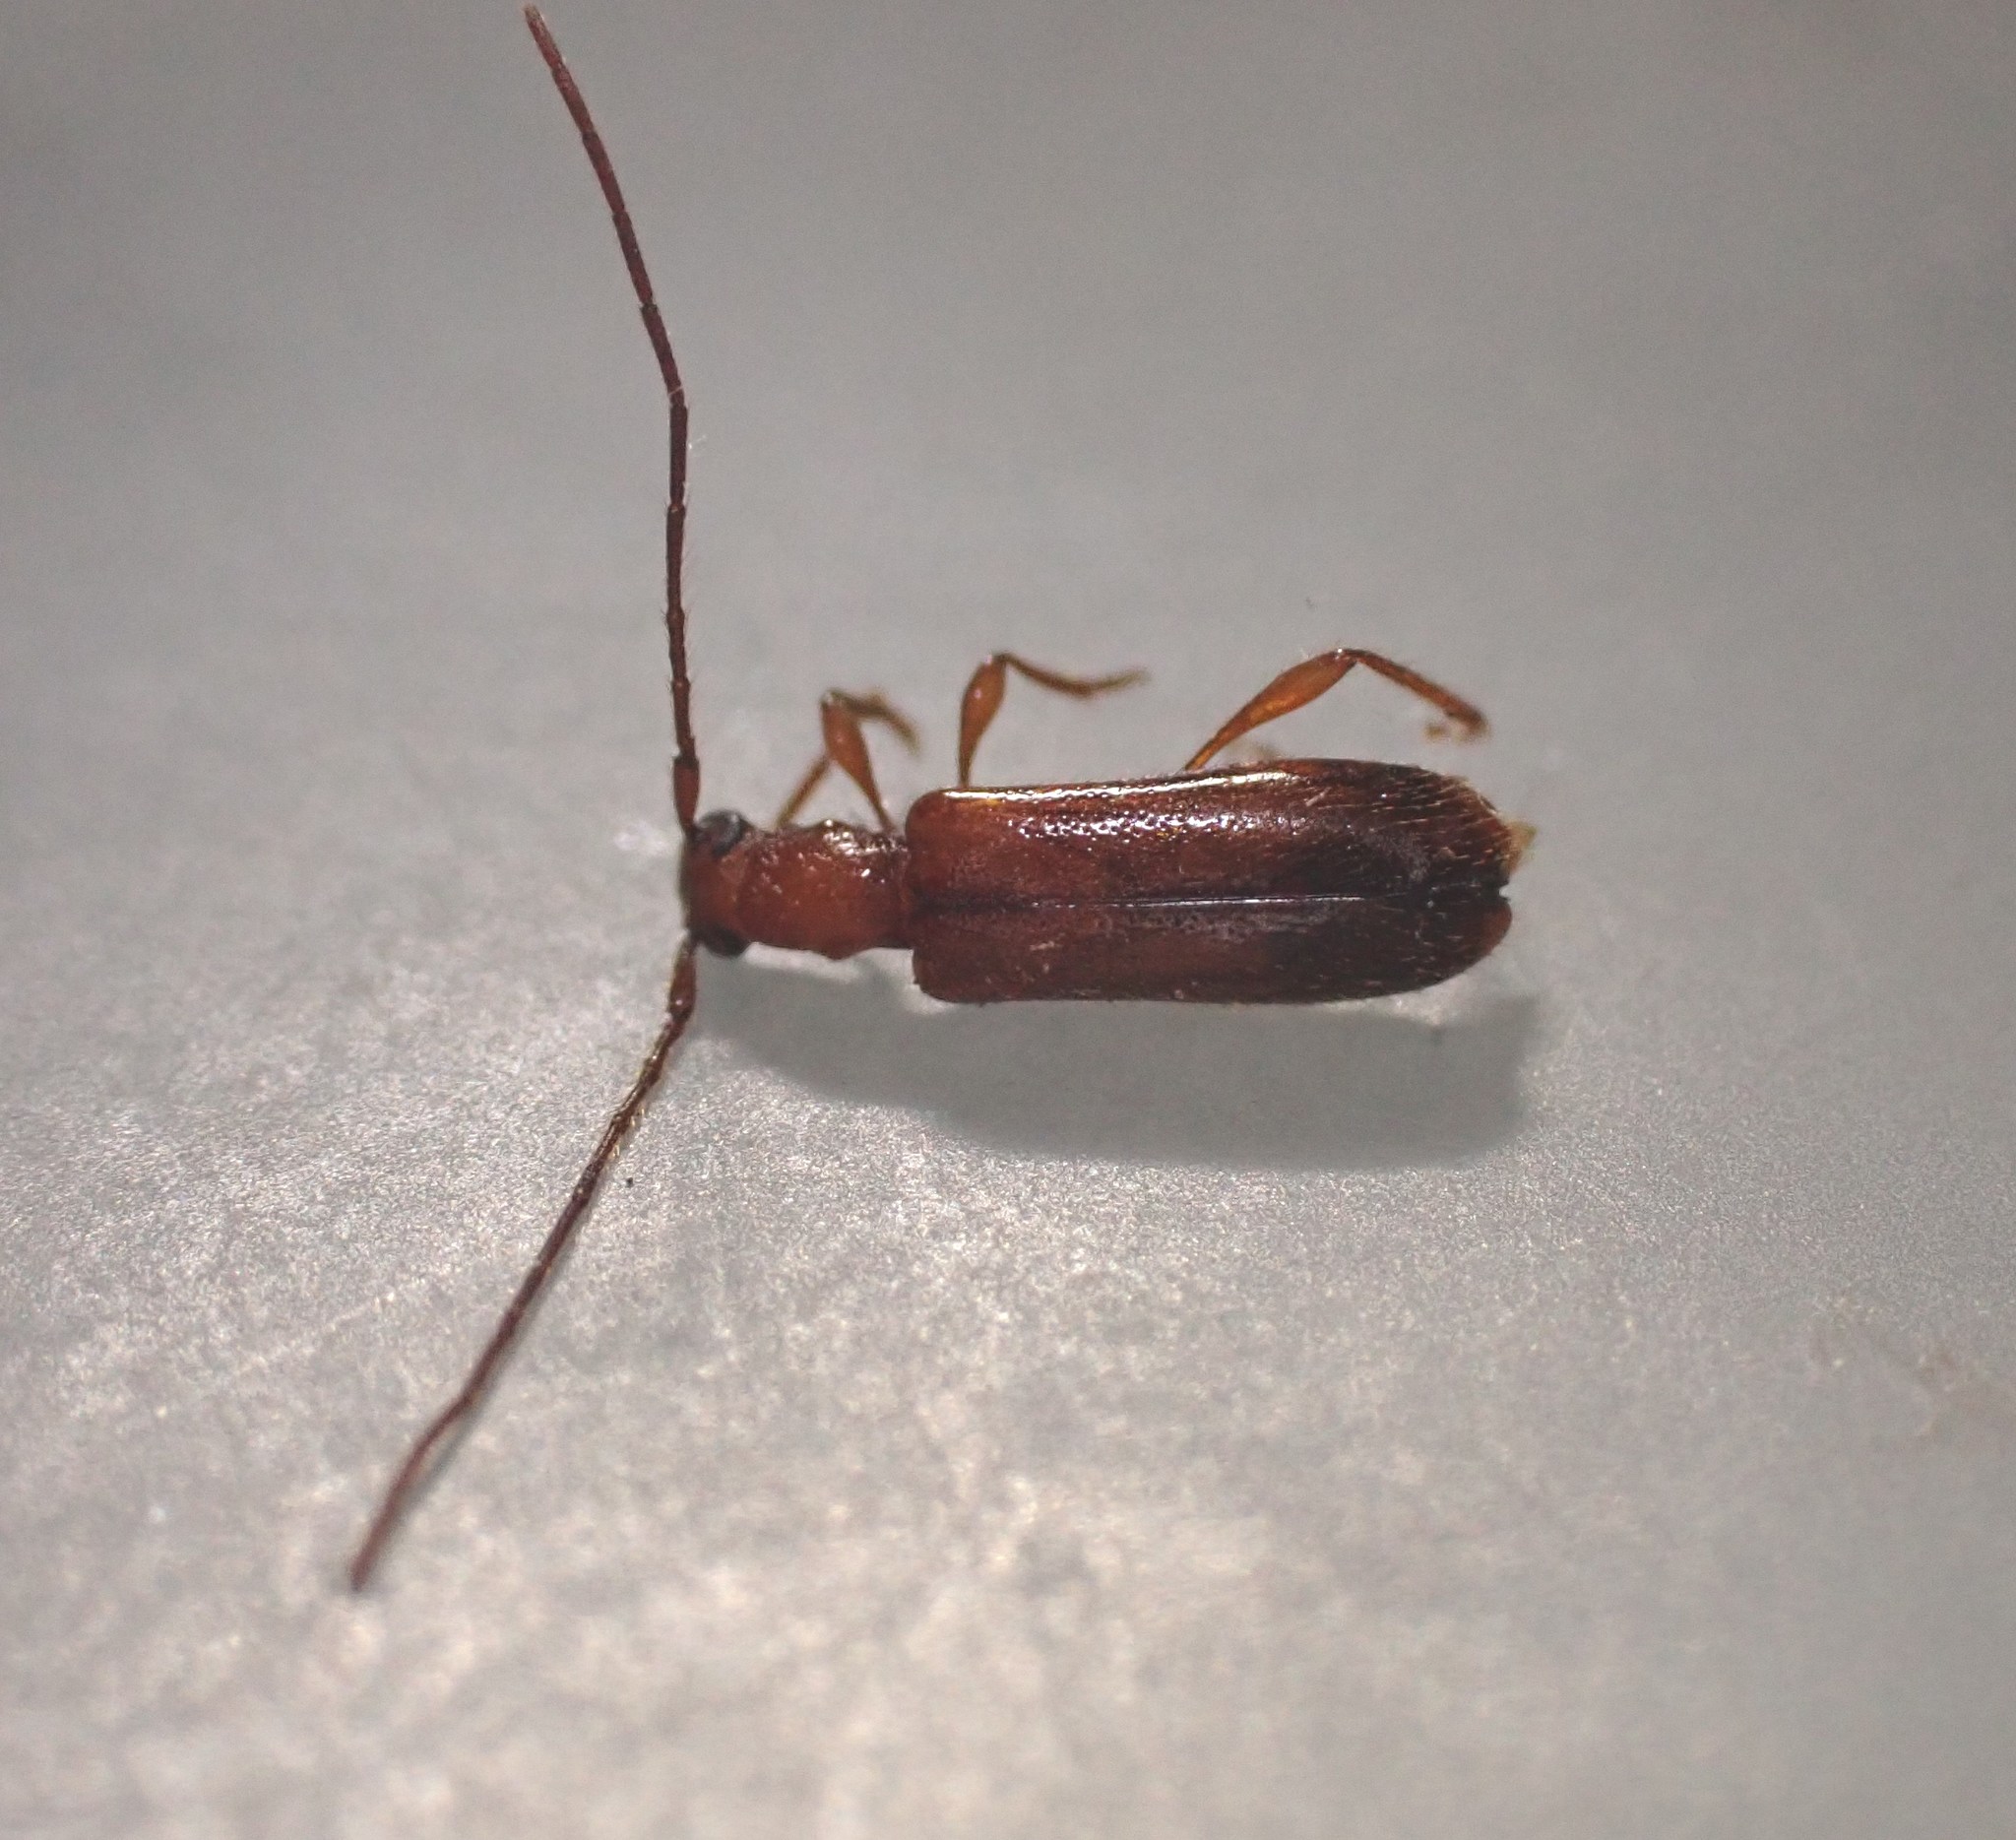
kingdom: Animalia
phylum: Arthropoda
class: Insecta
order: Coleoptera
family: Cerambycidae
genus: Obrium
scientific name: Obrium brunneum
